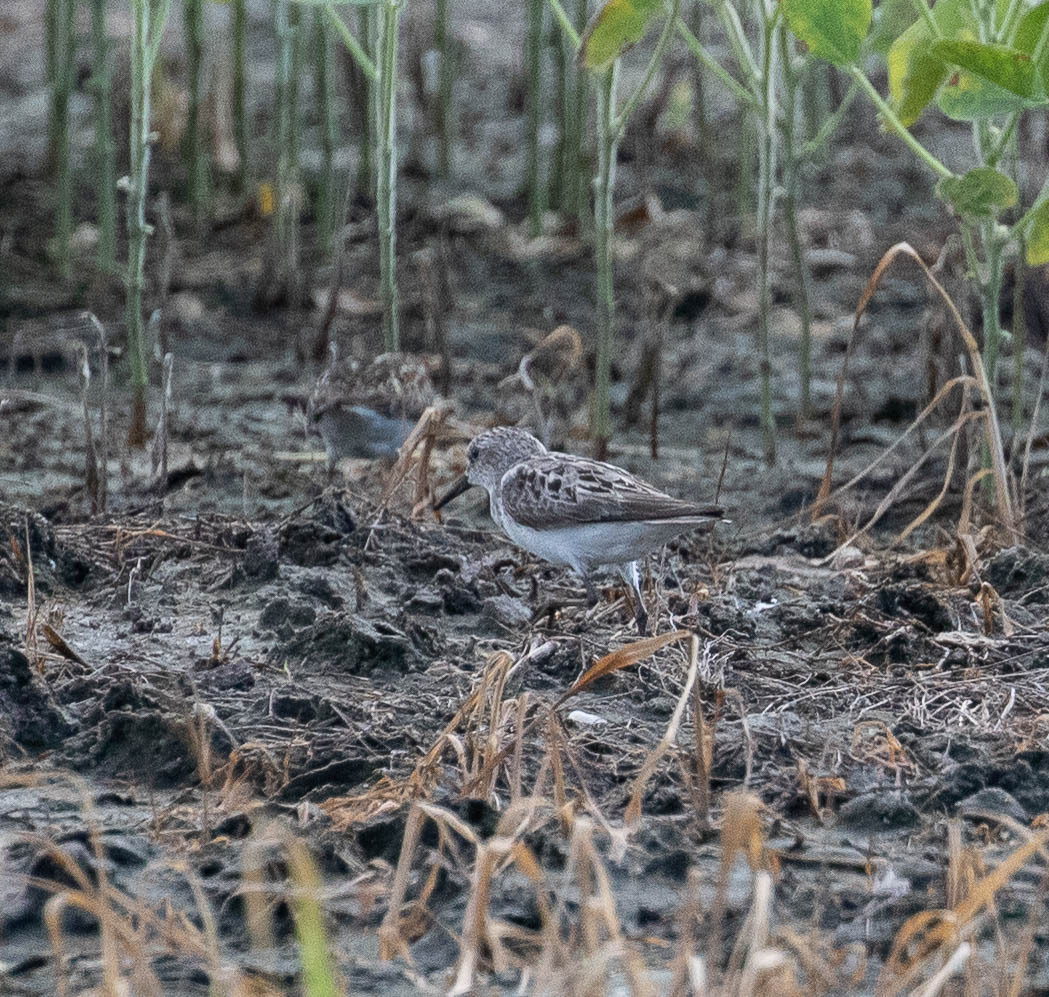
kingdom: Animalia
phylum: Chordata
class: Aves
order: Charadriiformes
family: Scolopacidae
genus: Calidris
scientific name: Calidris pusilla
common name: Semipalmated sandpiper
